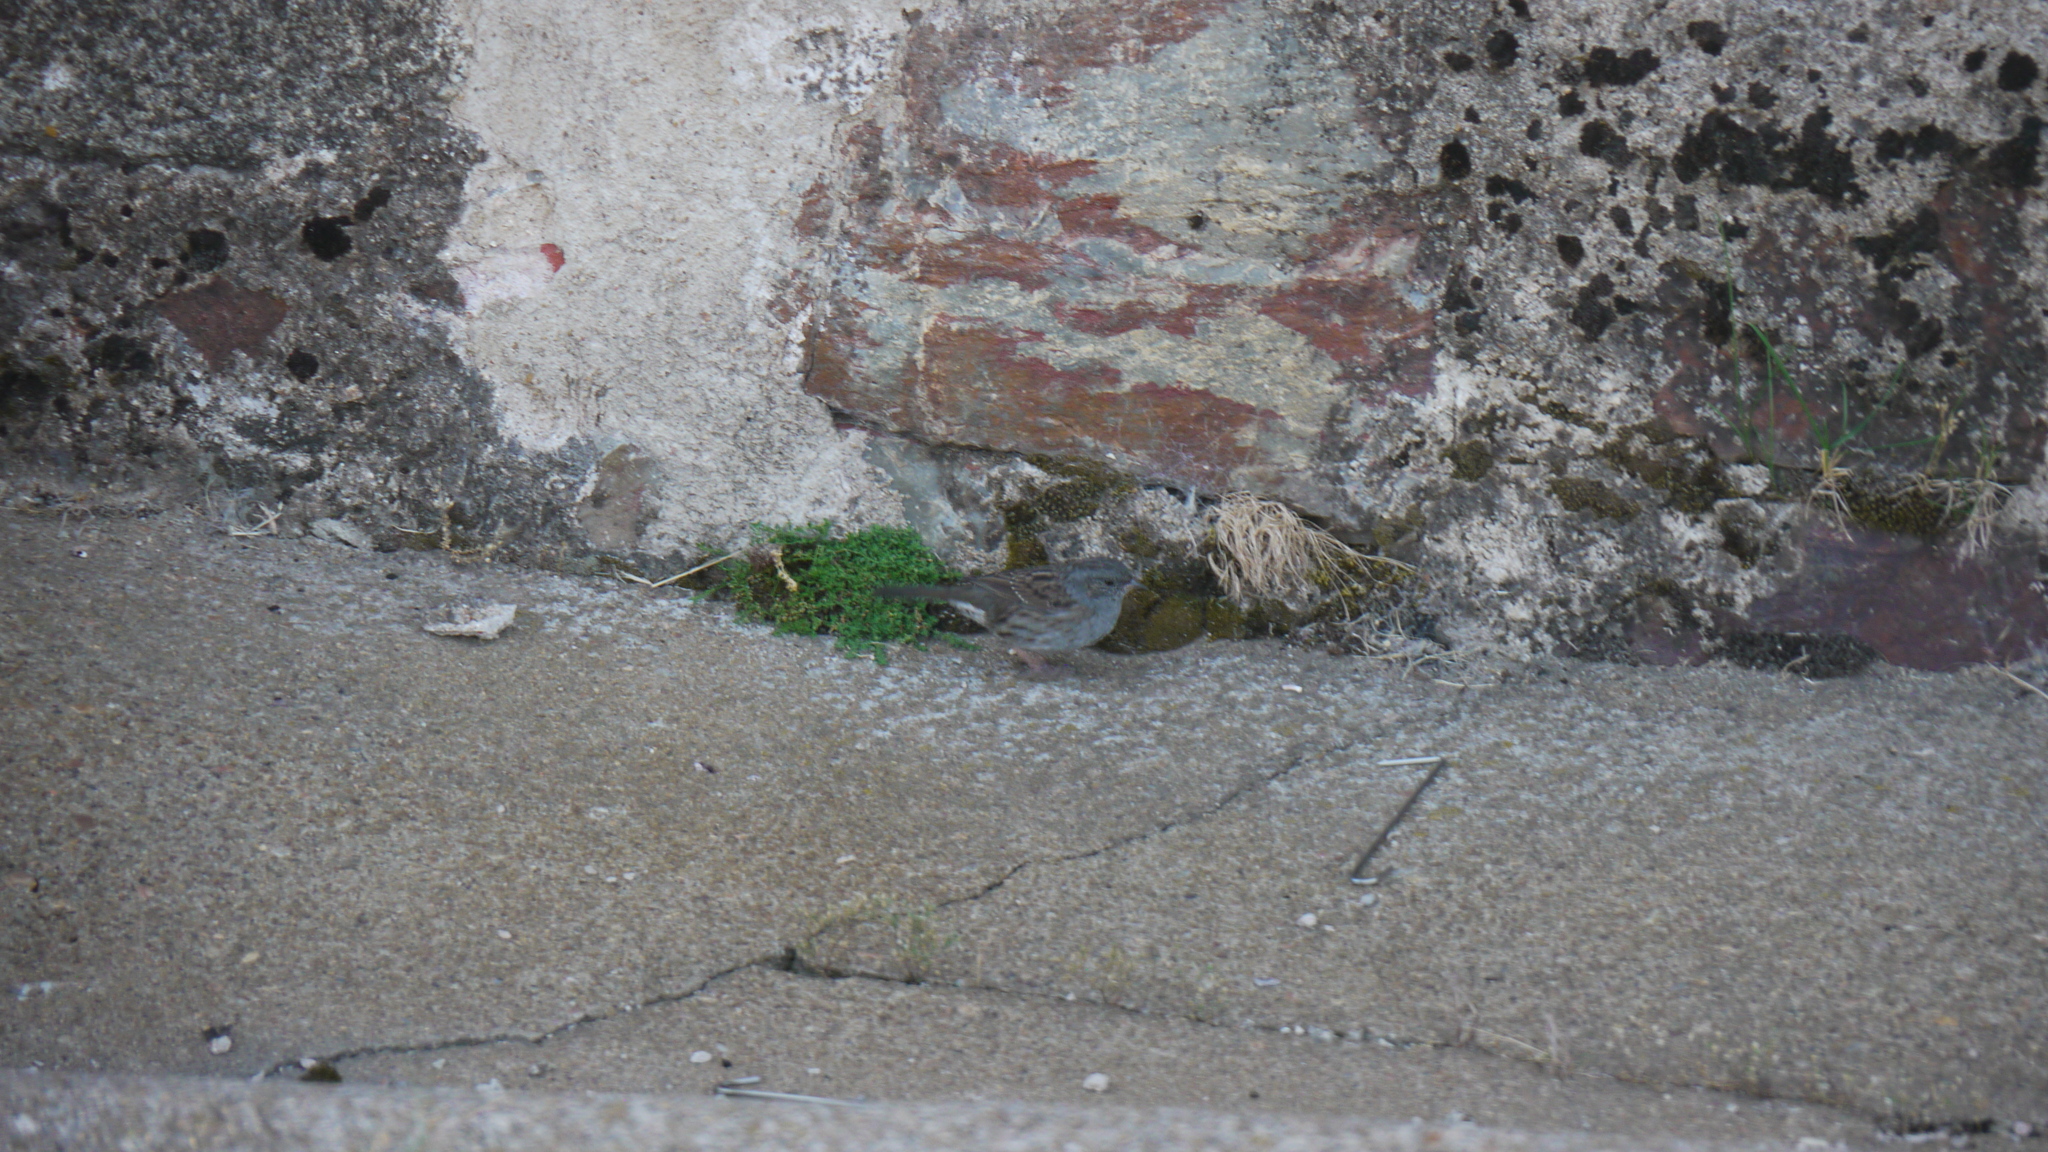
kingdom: Animalia
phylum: Chordata
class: Aves
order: Passeriformes
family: Prunellidae
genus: Prunella
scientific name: Prunella modularis
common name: Dunnock
